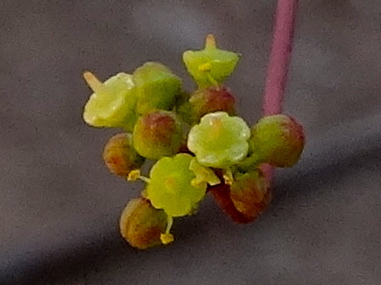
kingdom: Plantae
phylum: Tracheophyta
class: Magnoliopsida
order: Vitales
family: Vitaceae
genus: Parthenocissus
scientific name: Parthenocissus quinquefolia
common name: Virginia-creeper
